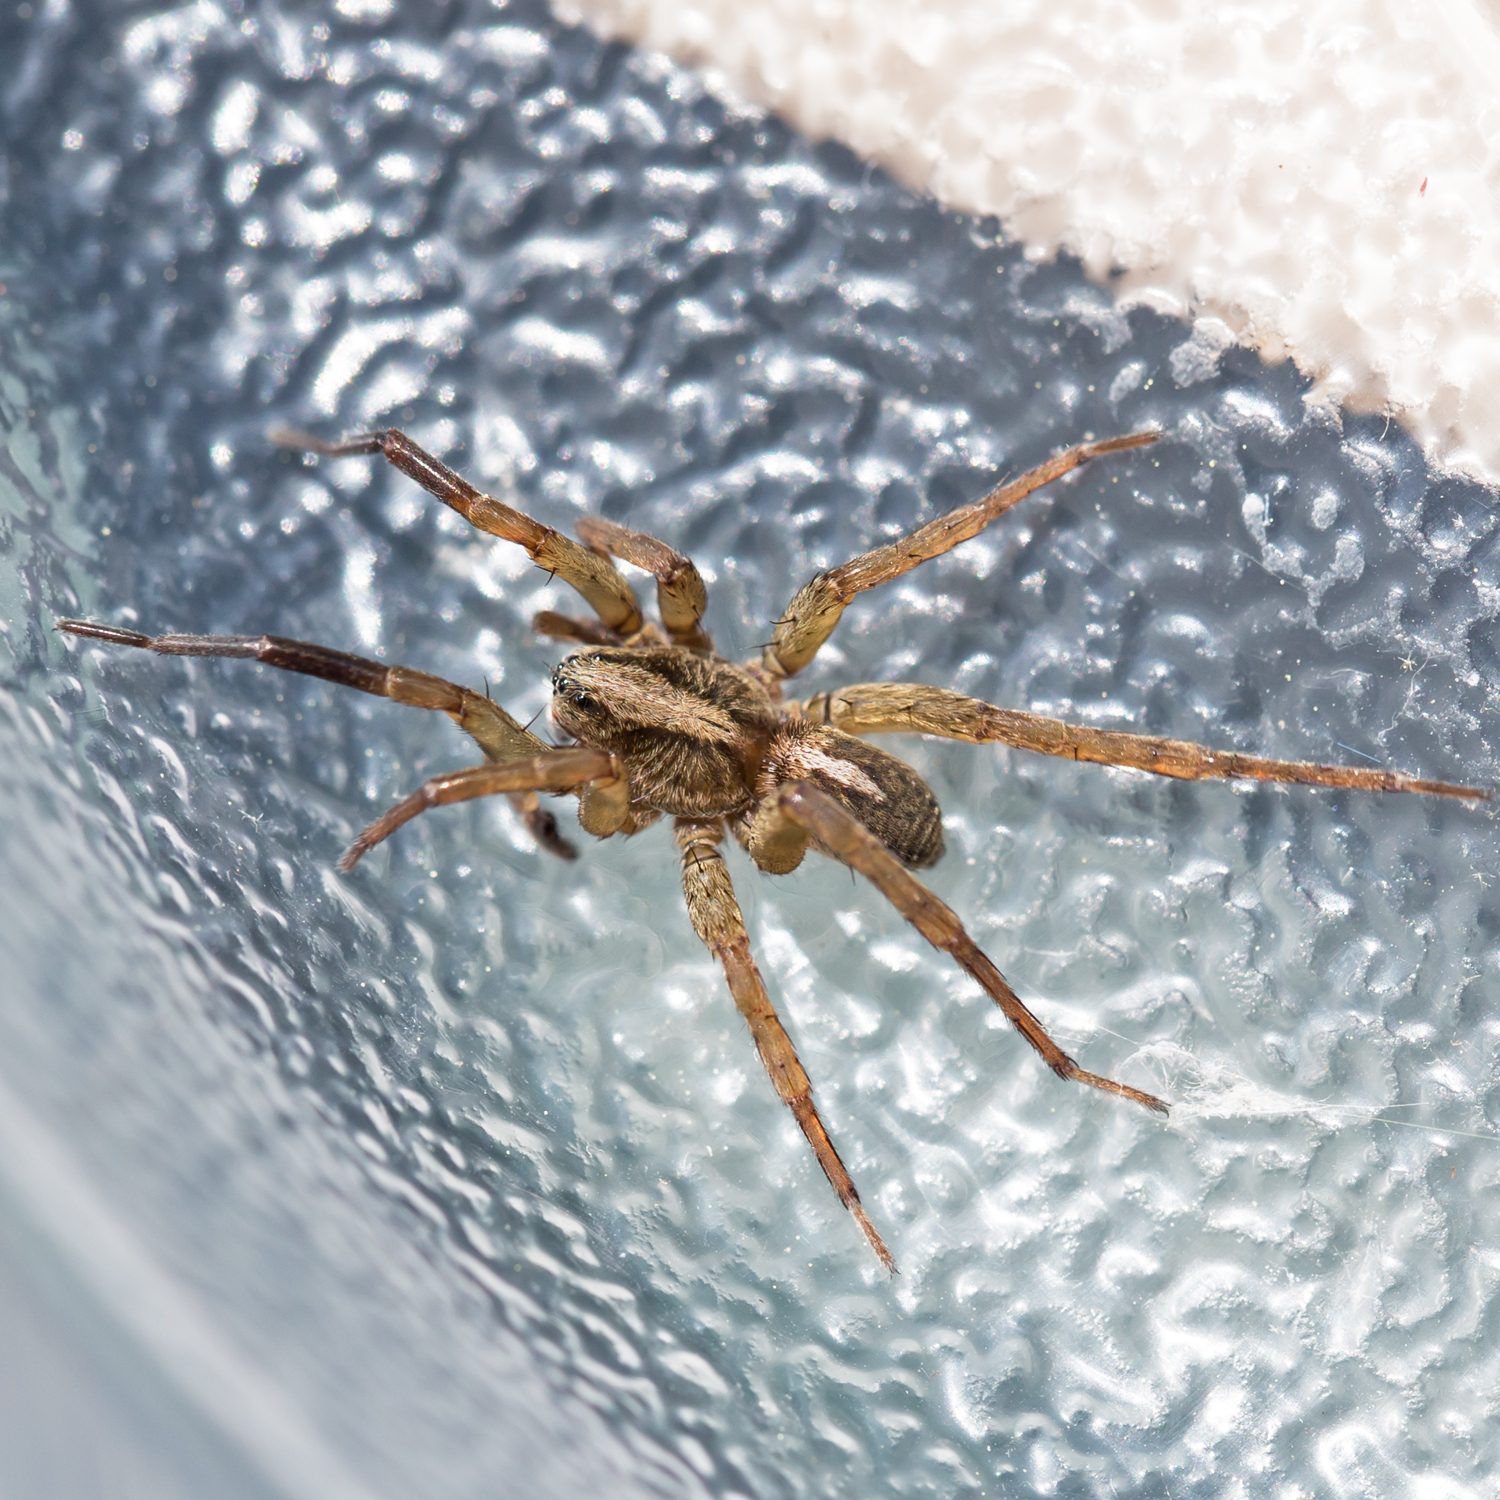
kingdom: Animalia
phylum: Arthropoda
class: Arachnida
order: Araneae
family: Lycosidae
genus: Trochosa
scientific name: Trochosa ruricola
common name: Spider
